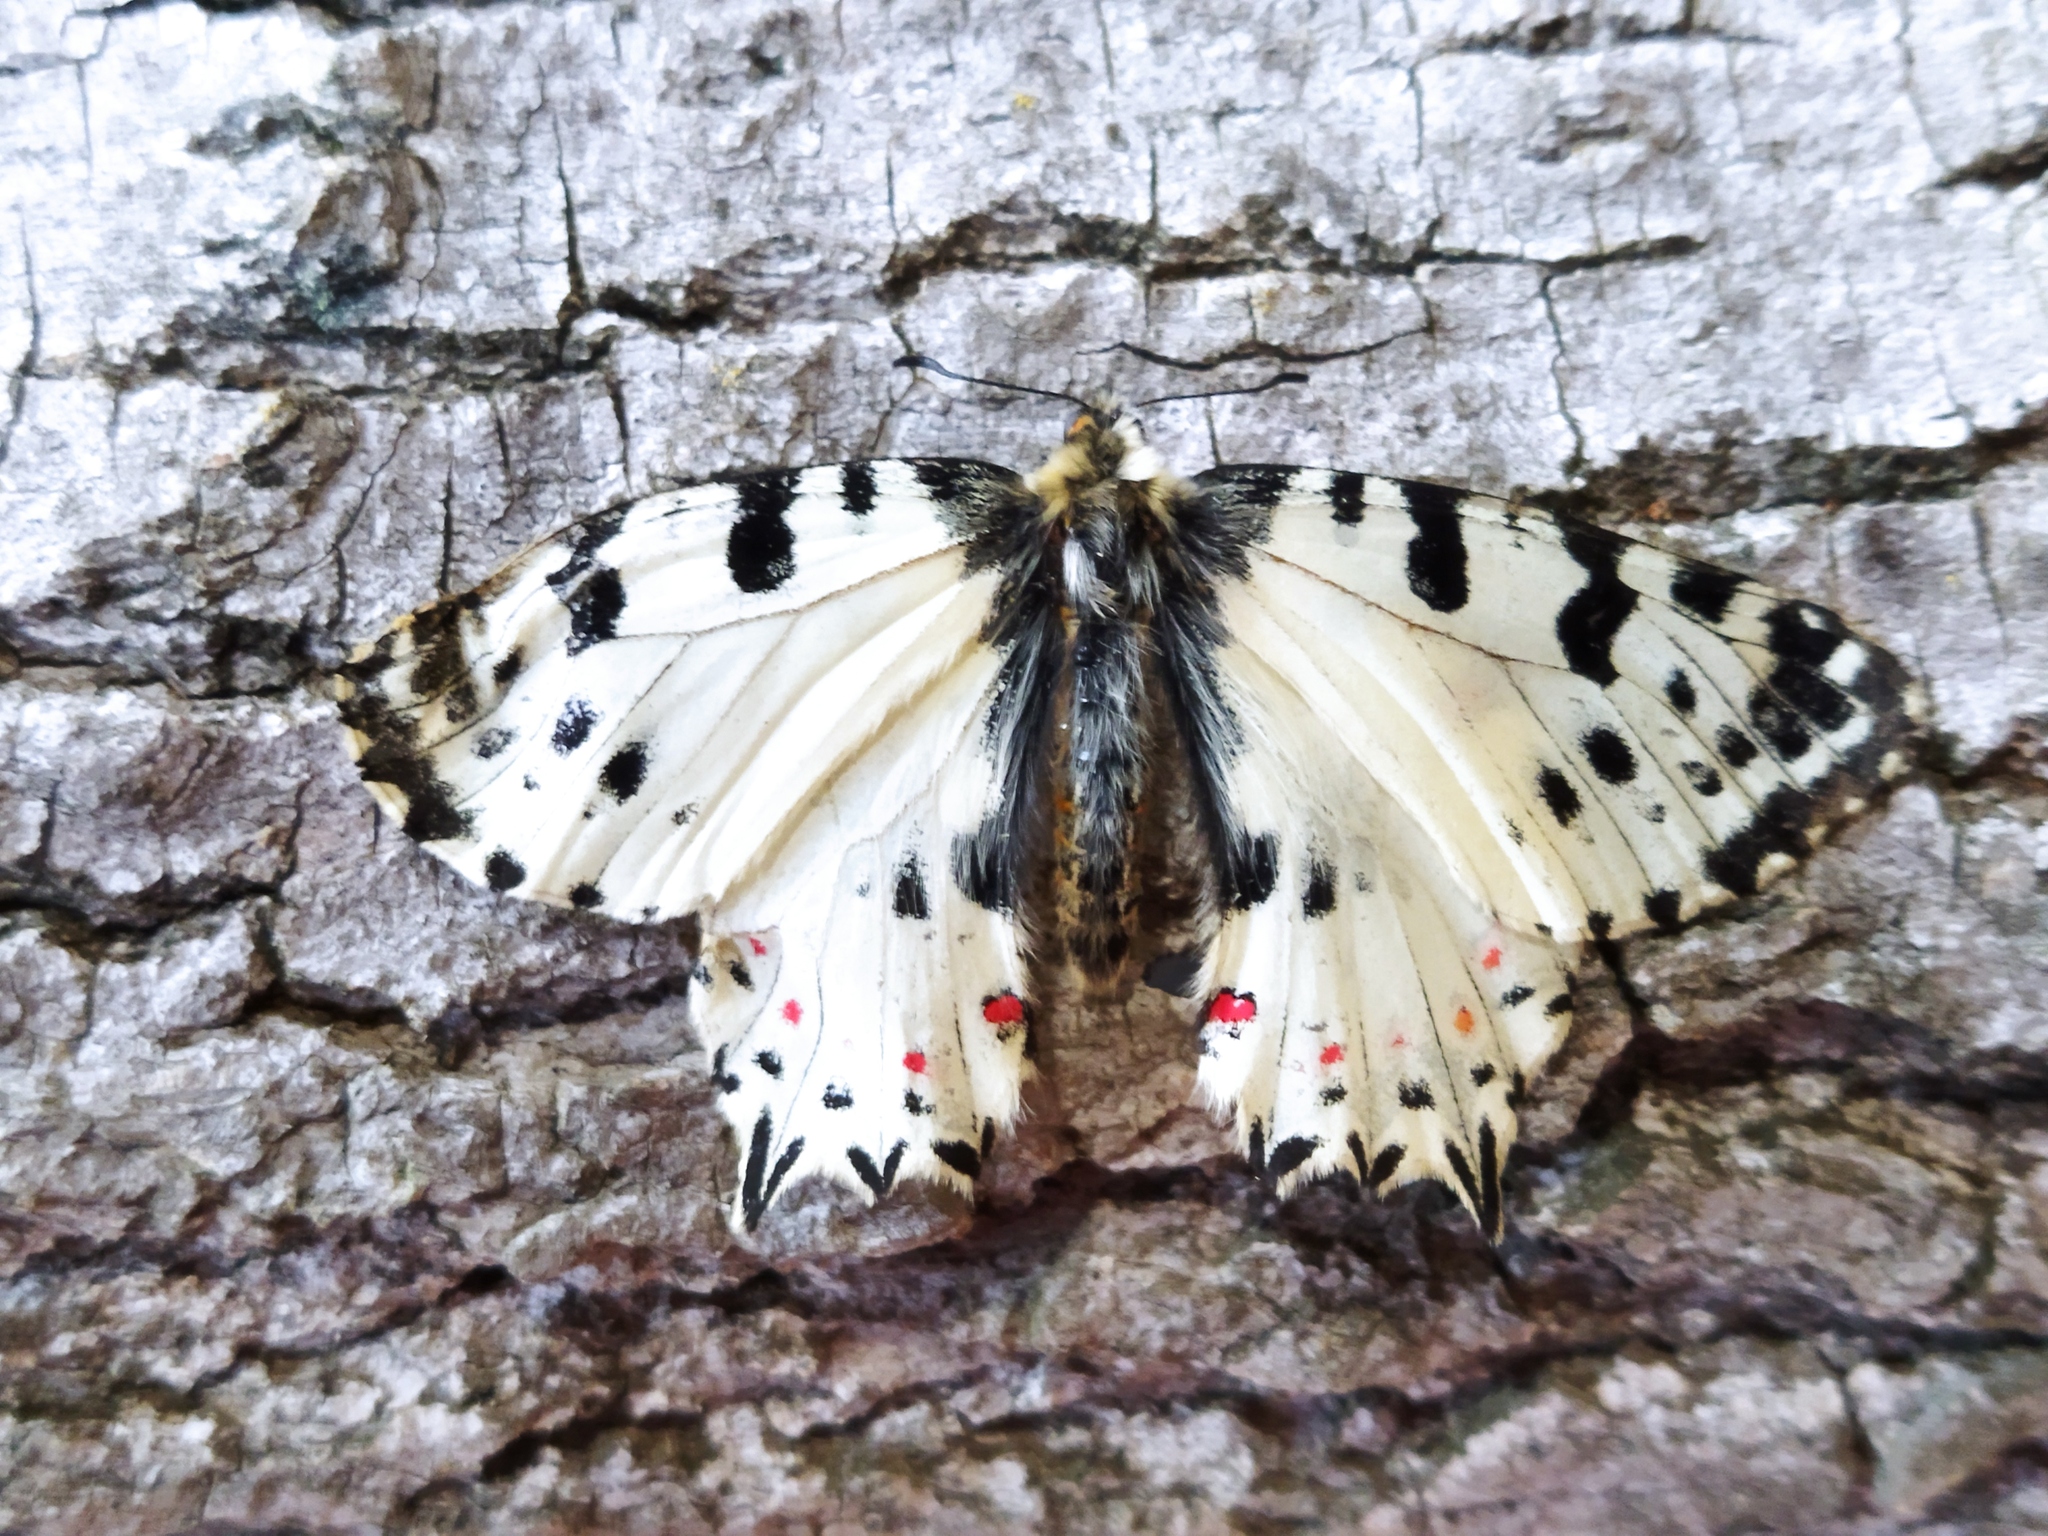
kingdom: Animalia
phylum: Arthropoda
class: Insecta
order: Lepidoptera
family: Papilionidae
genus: Zerynthia
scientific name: Zerynthia cerisy
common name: Eastern festoon
